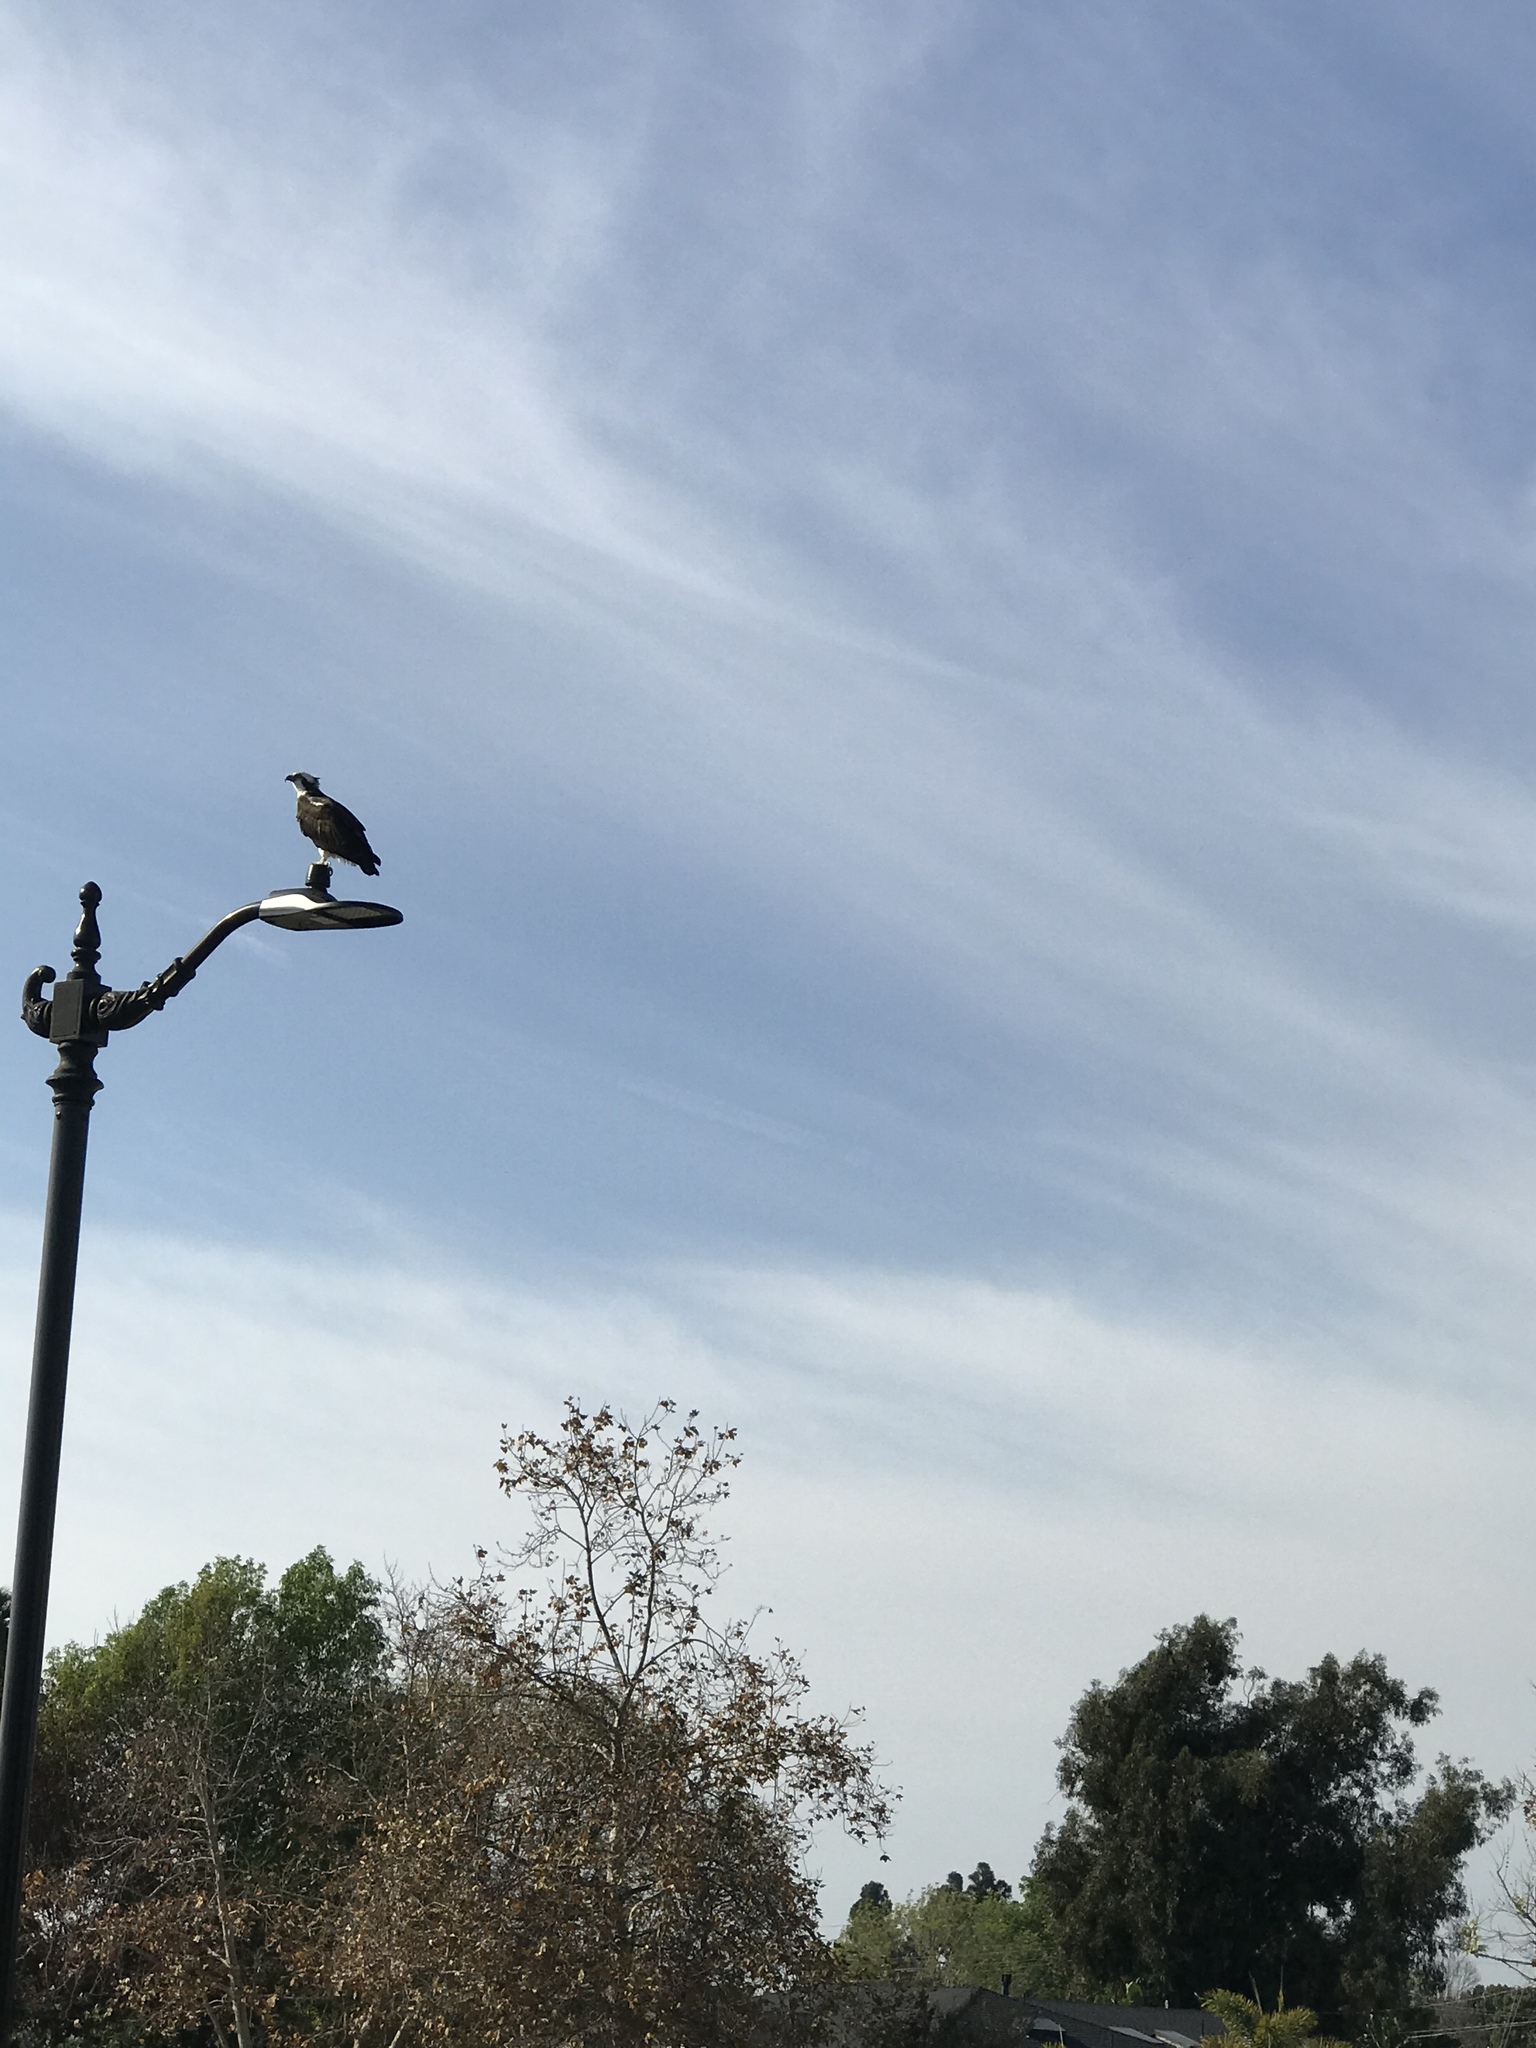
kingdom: Animalia
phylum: Chordata
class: Aves
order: Accipitriformes
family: Pandionidae
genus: Pandion
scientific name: Pandion haliaetus
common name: Osprey
